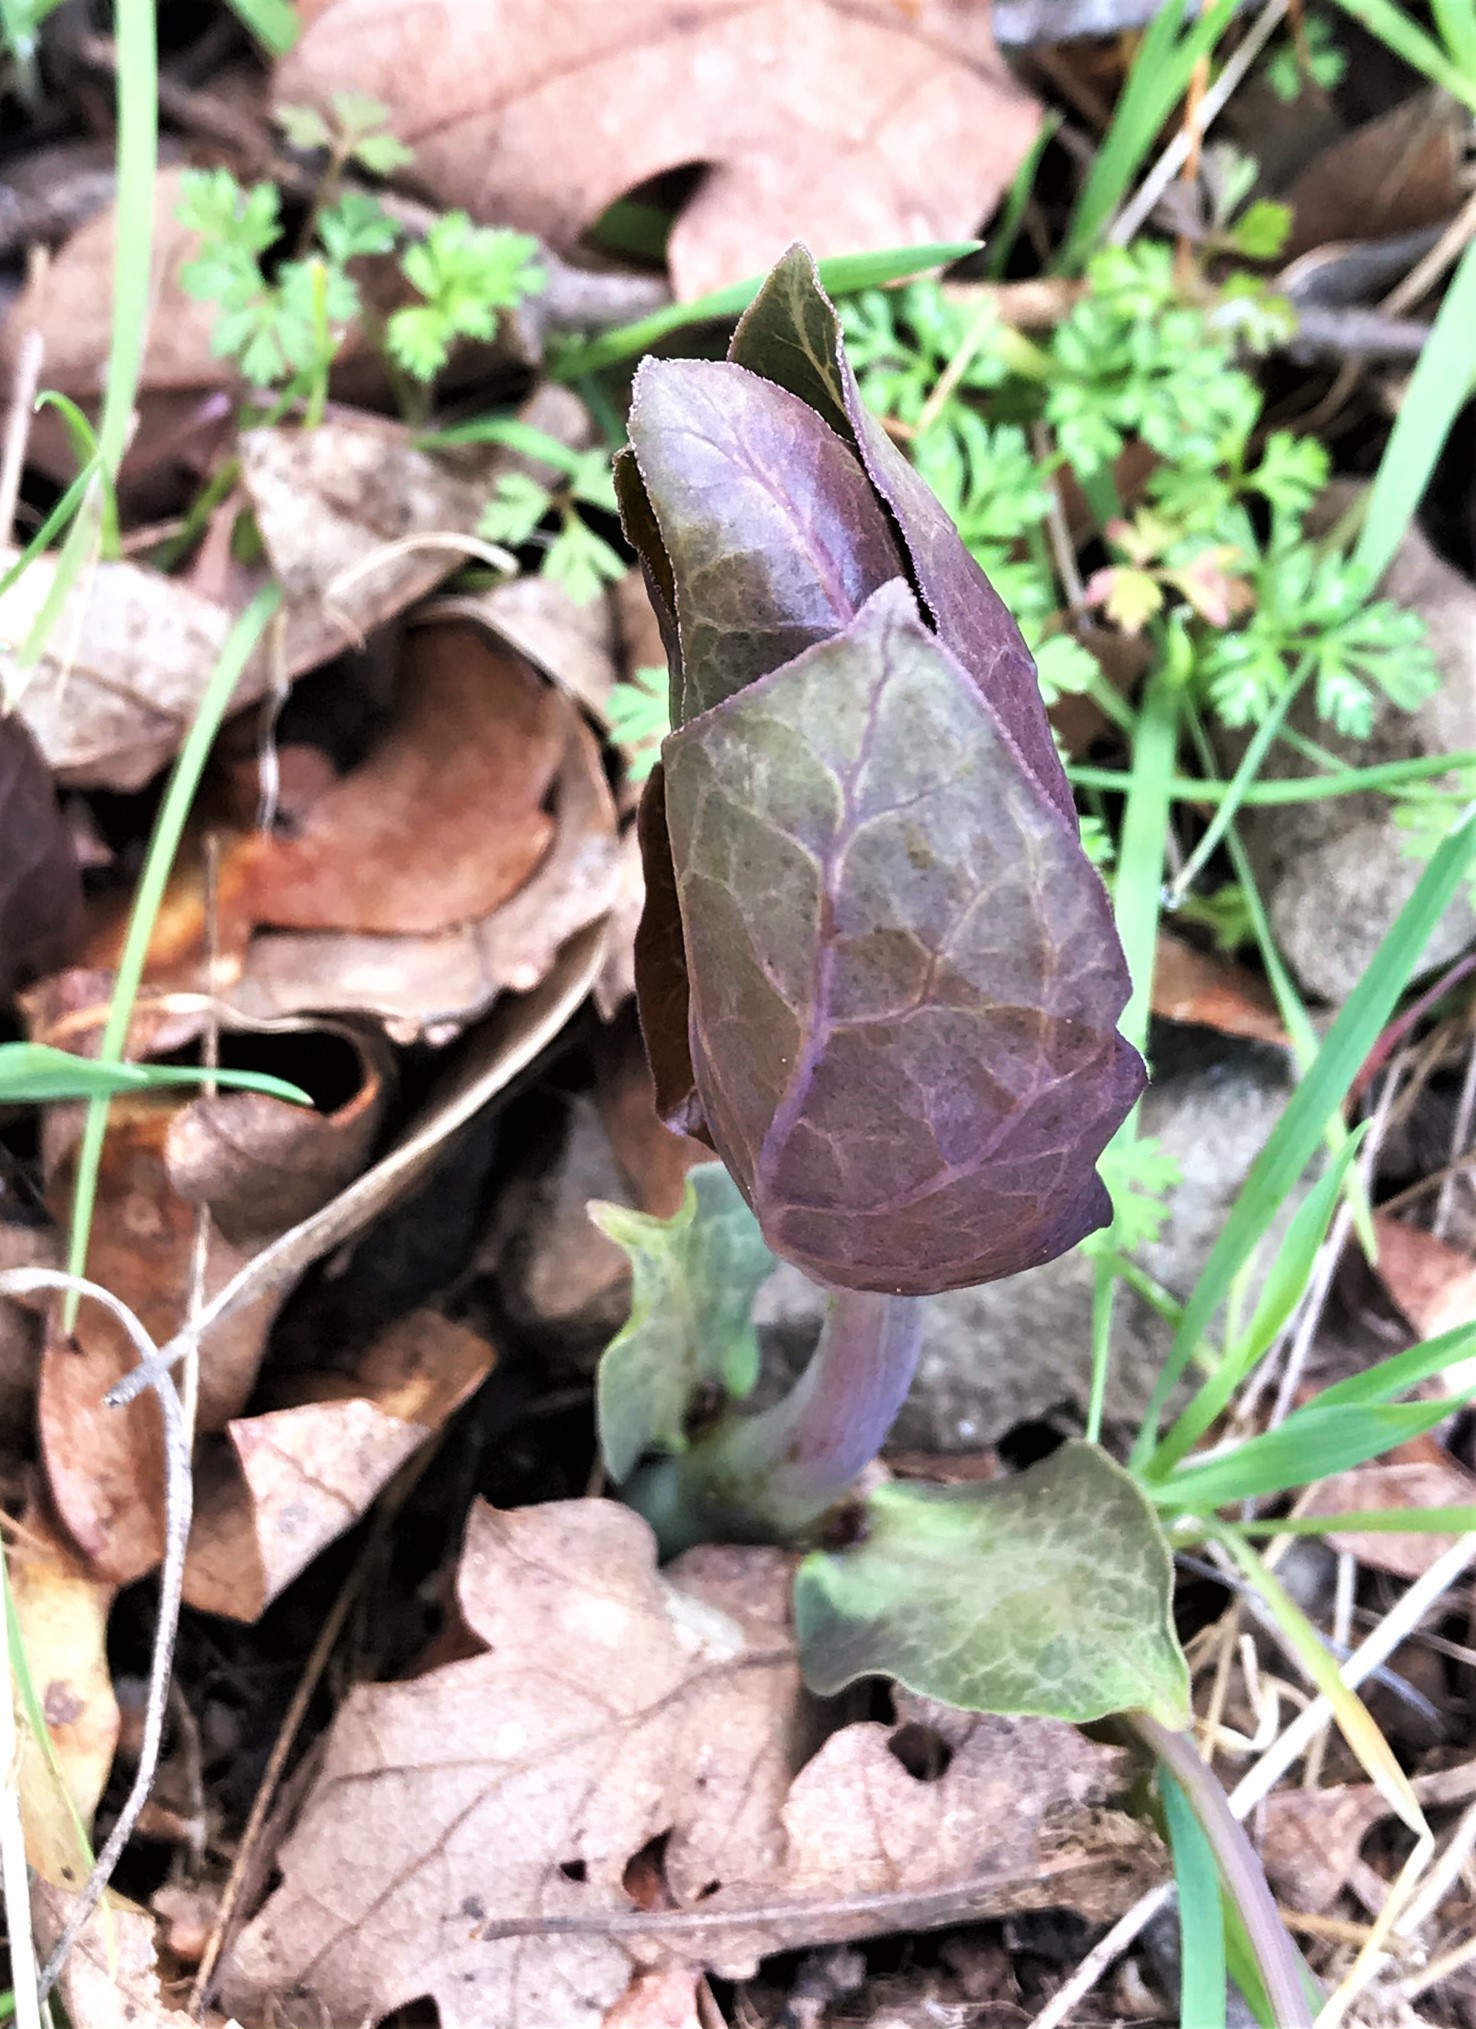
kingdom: Plantae
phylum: Tracheophyta
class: Magnoliopsida
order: Gentianales
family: Apocynaceae
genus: Asclepias
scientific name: Asclepias cordifolia
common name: Purple milkweed
